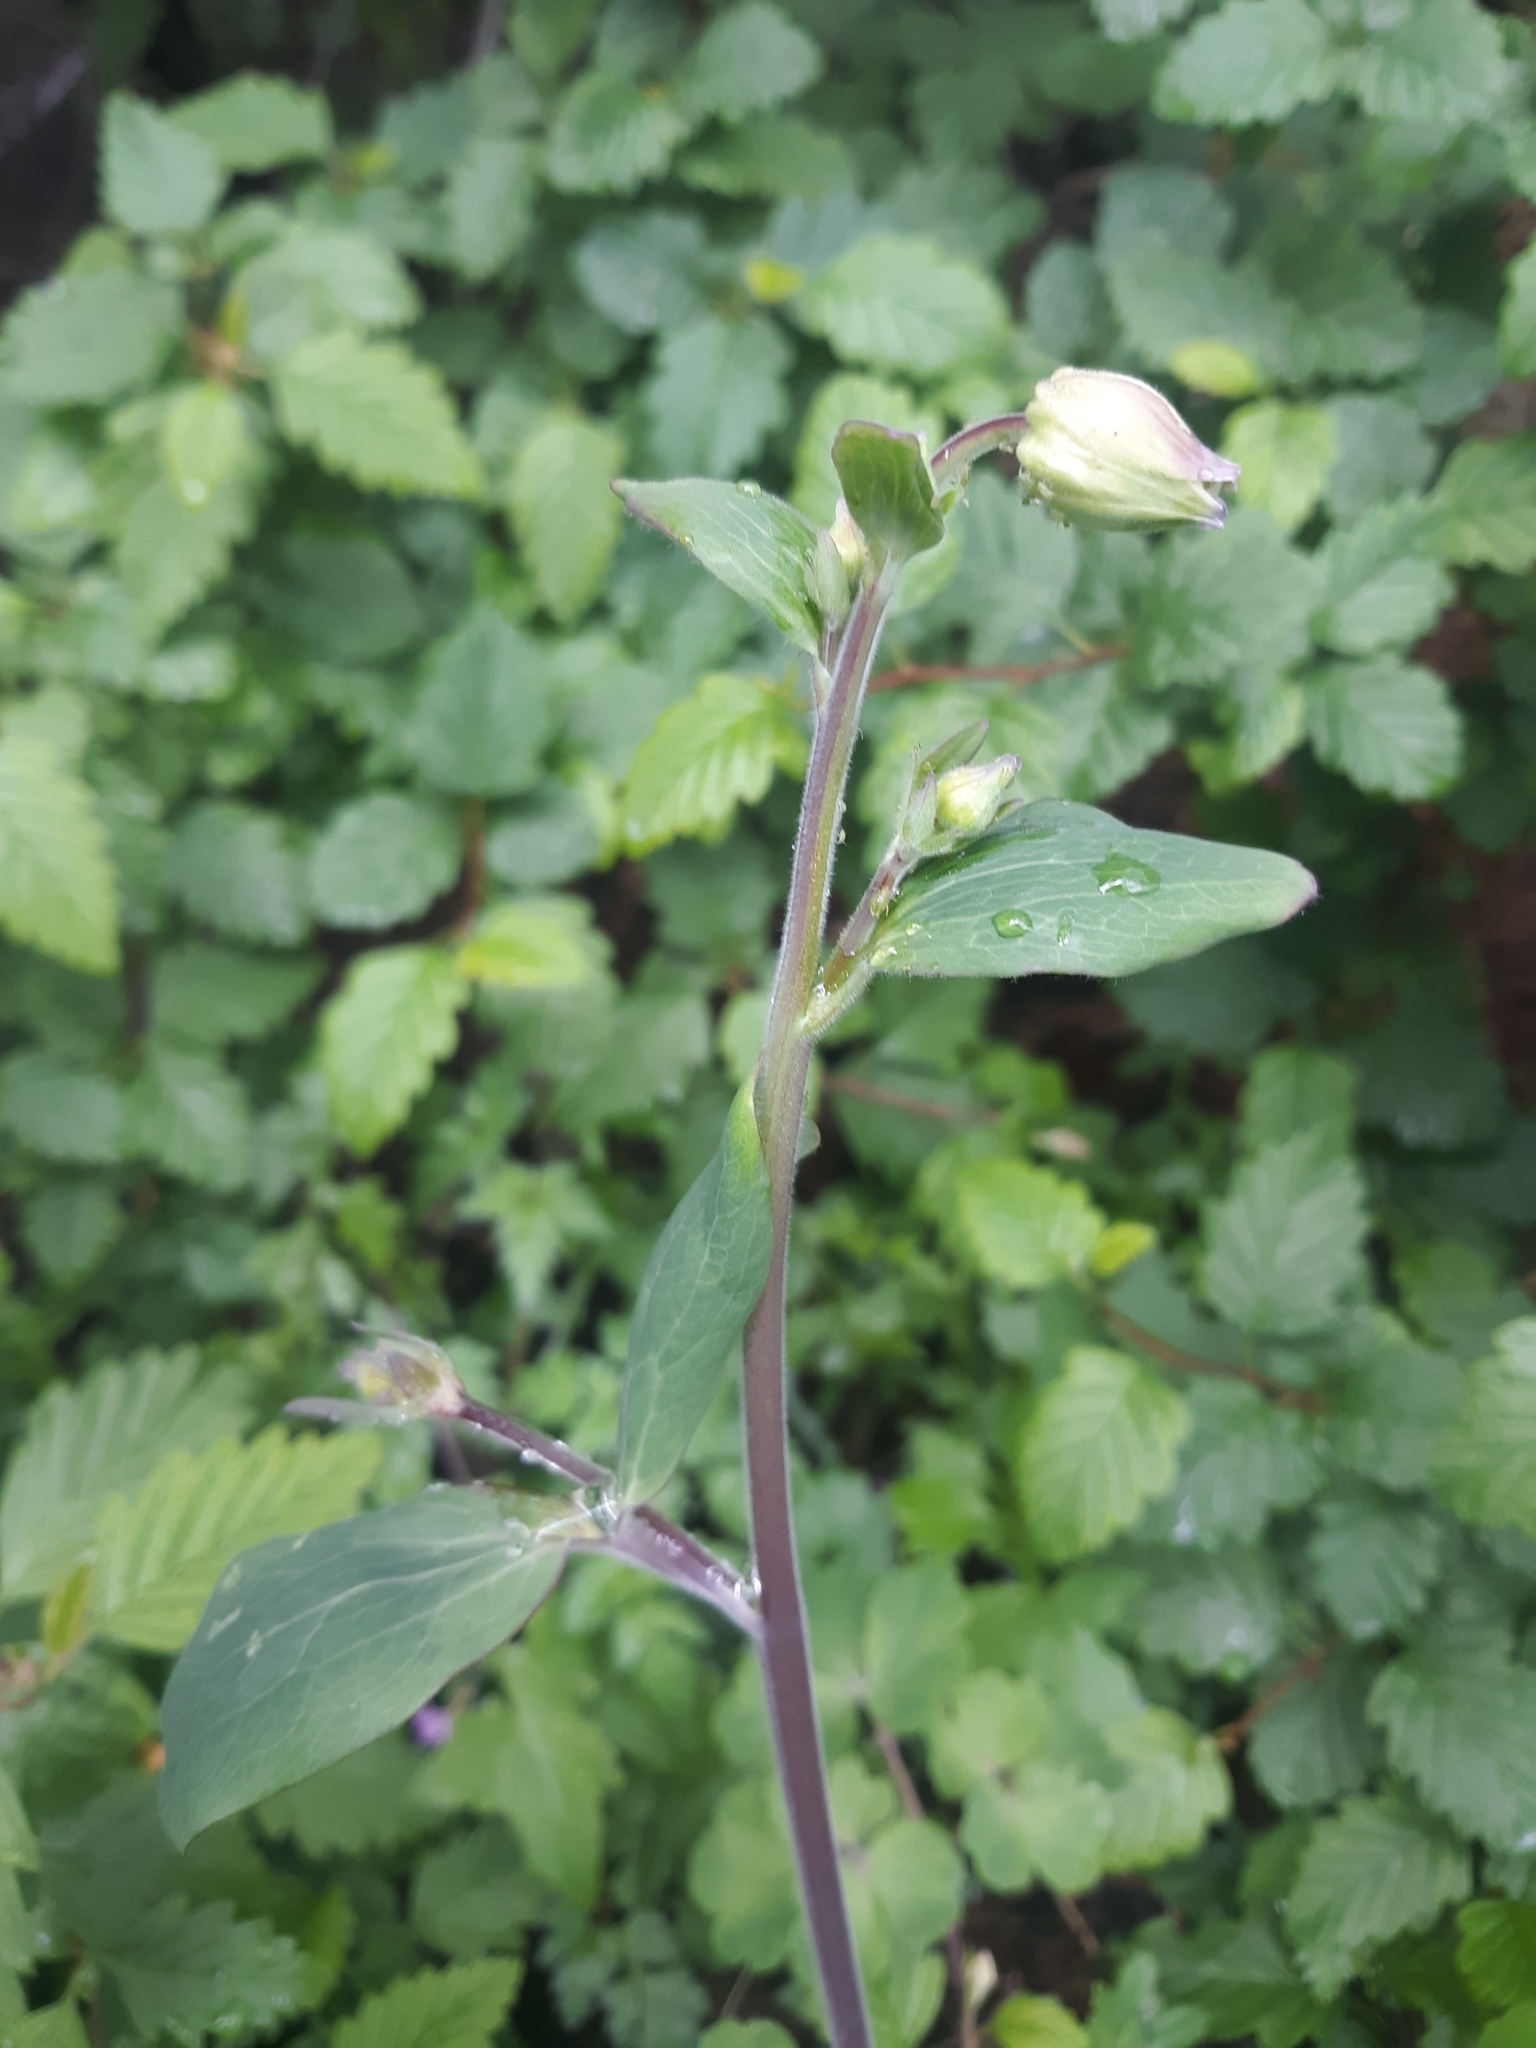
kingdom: Plantae
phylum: Tracheophyta
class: Magnoliopsida
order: Ranunculales
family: Ranunculaceae
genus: Aquilegia
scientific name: Aquilegia vulgaris
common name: Columbine
